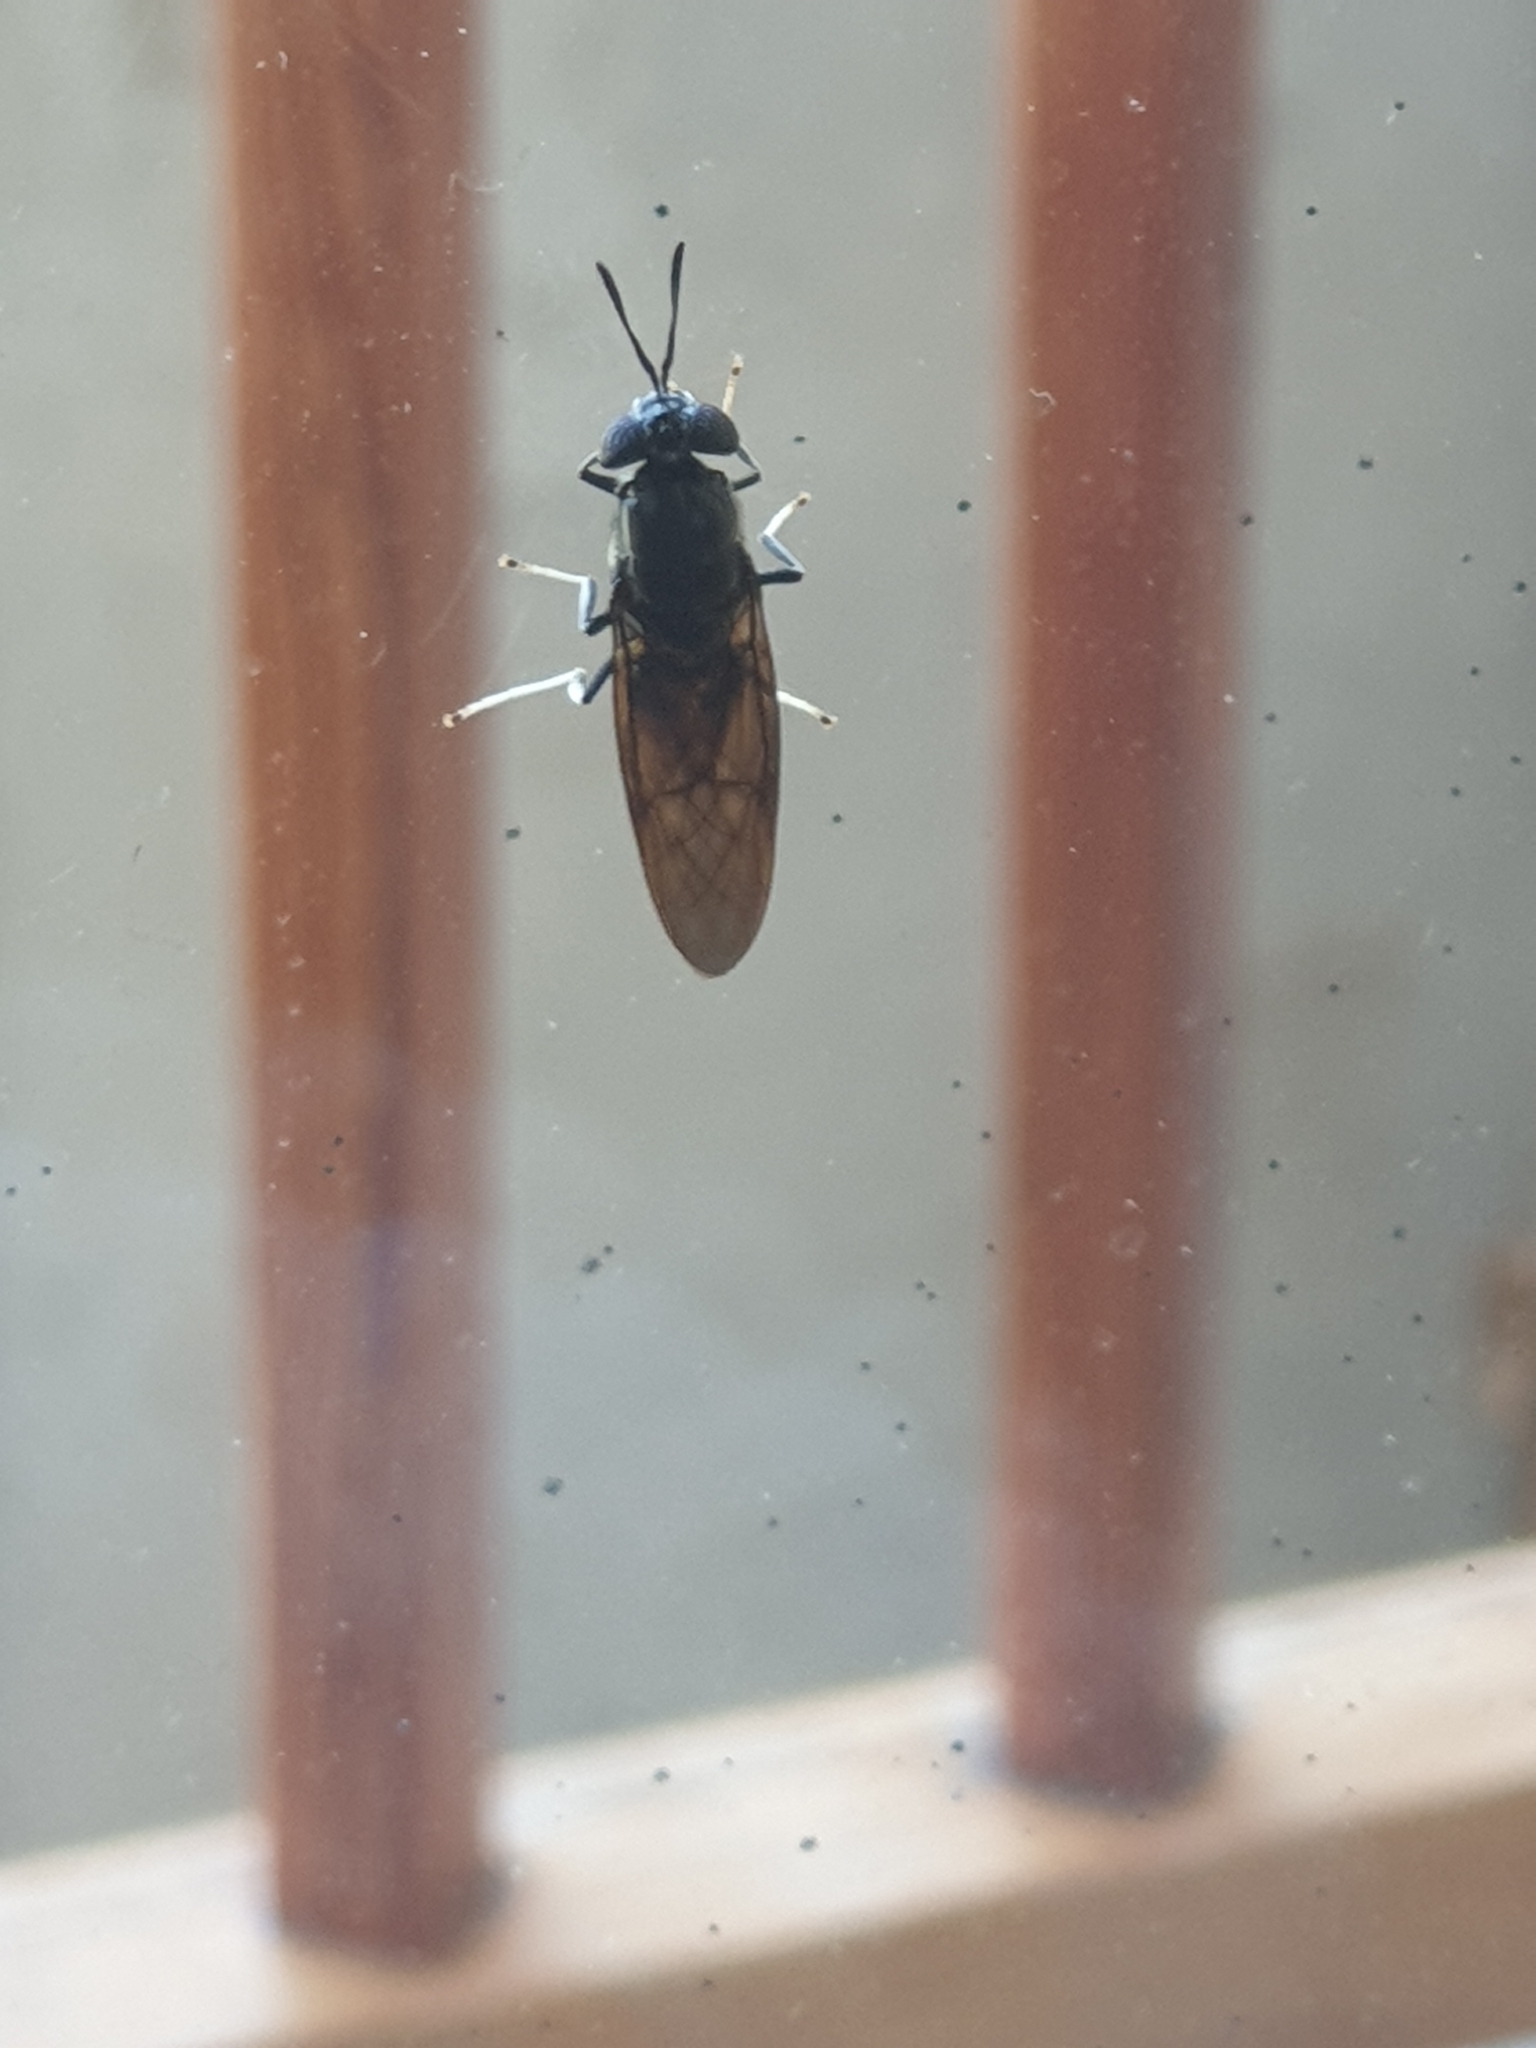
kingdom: Animalia
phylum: Arthropoda
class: Insecta
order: Diptera
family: Stratiomyidae
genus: Hermetia
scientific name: Hermetia illucens
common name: Black soldier fly
